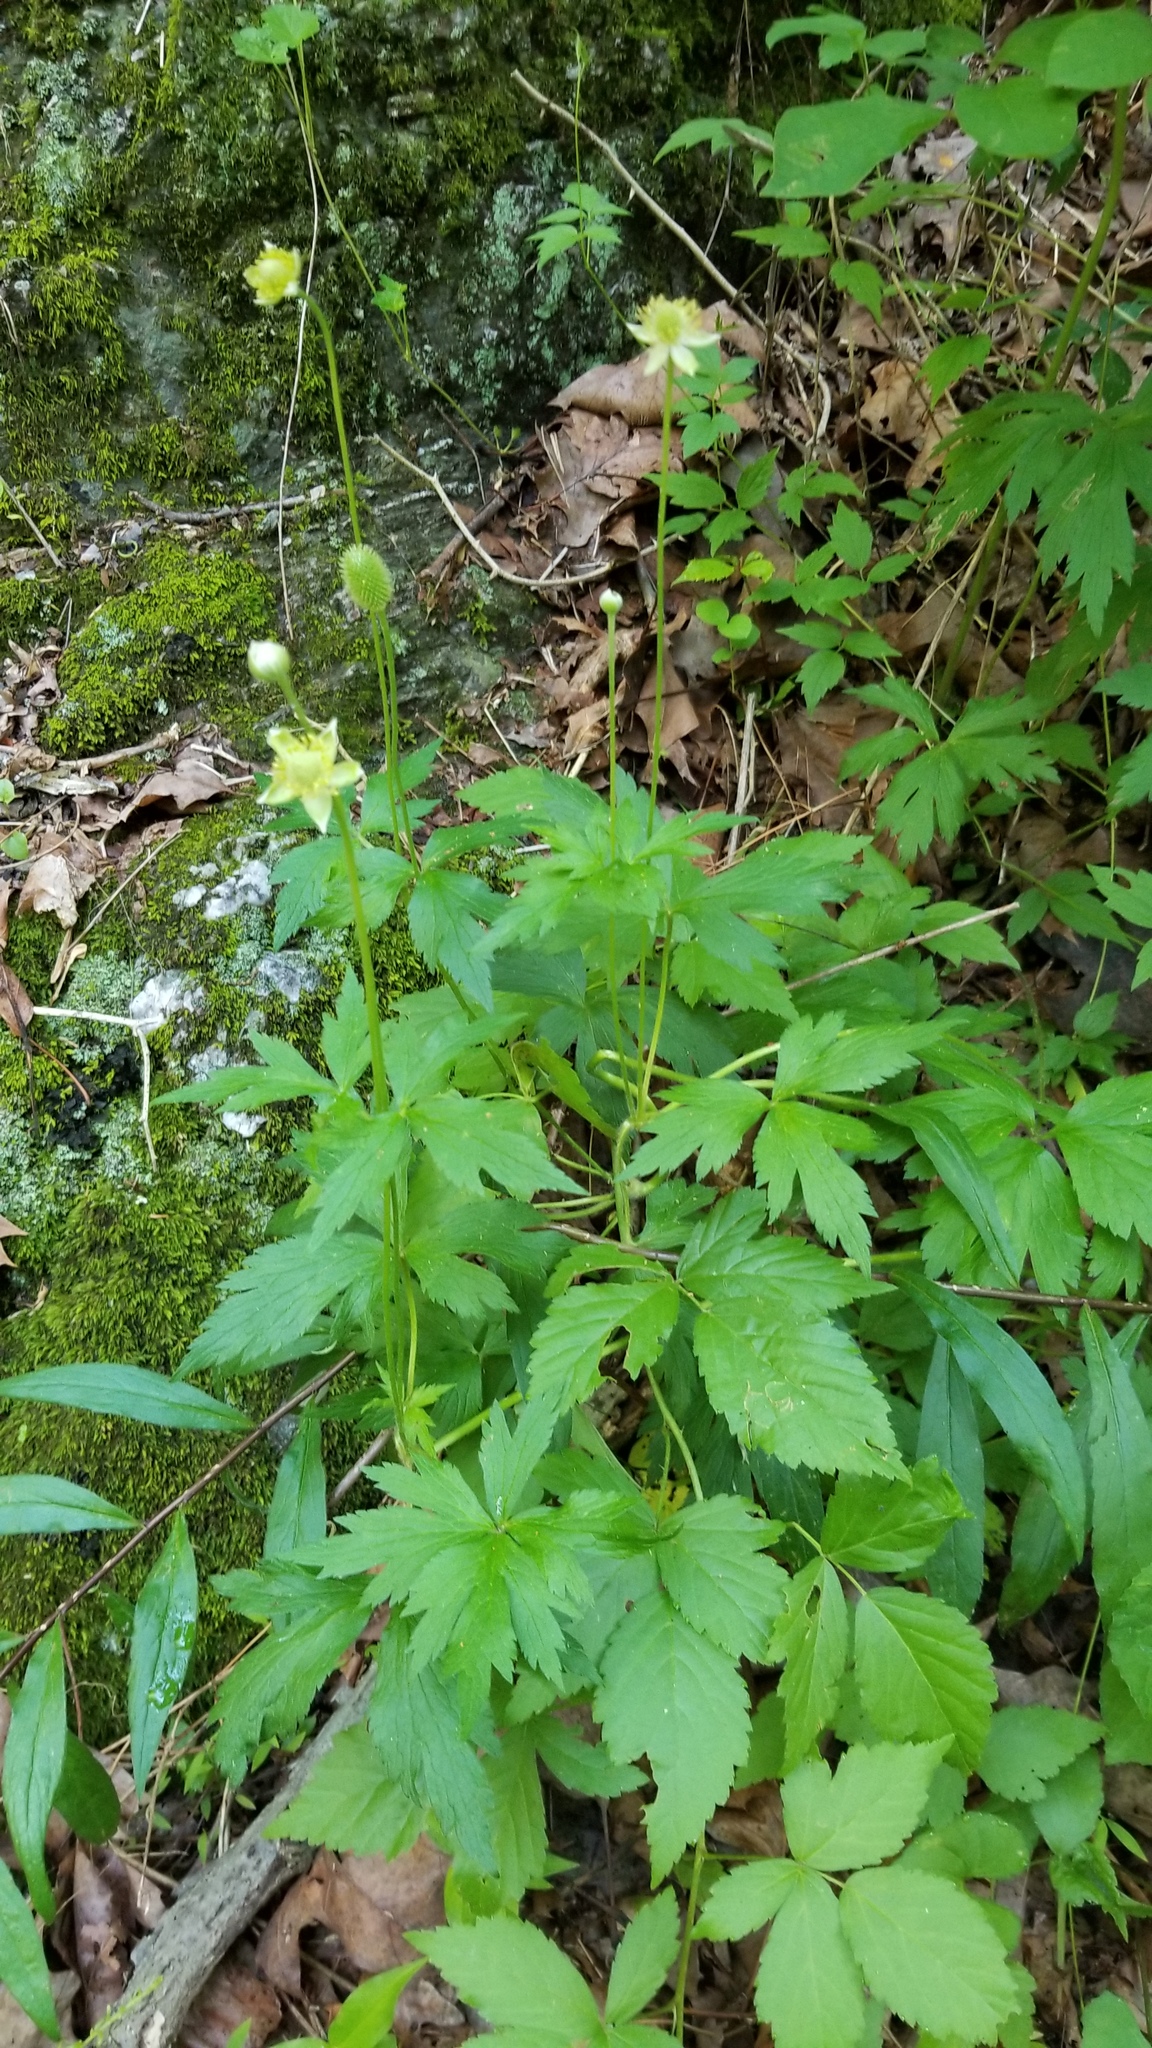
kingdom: Plantae
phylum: Tracheophyta
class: Magnoliopsida
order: Ranunculales
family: Ranunculaceae
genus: Anemone
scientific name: Anemone virginiana
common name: Tall anemone
